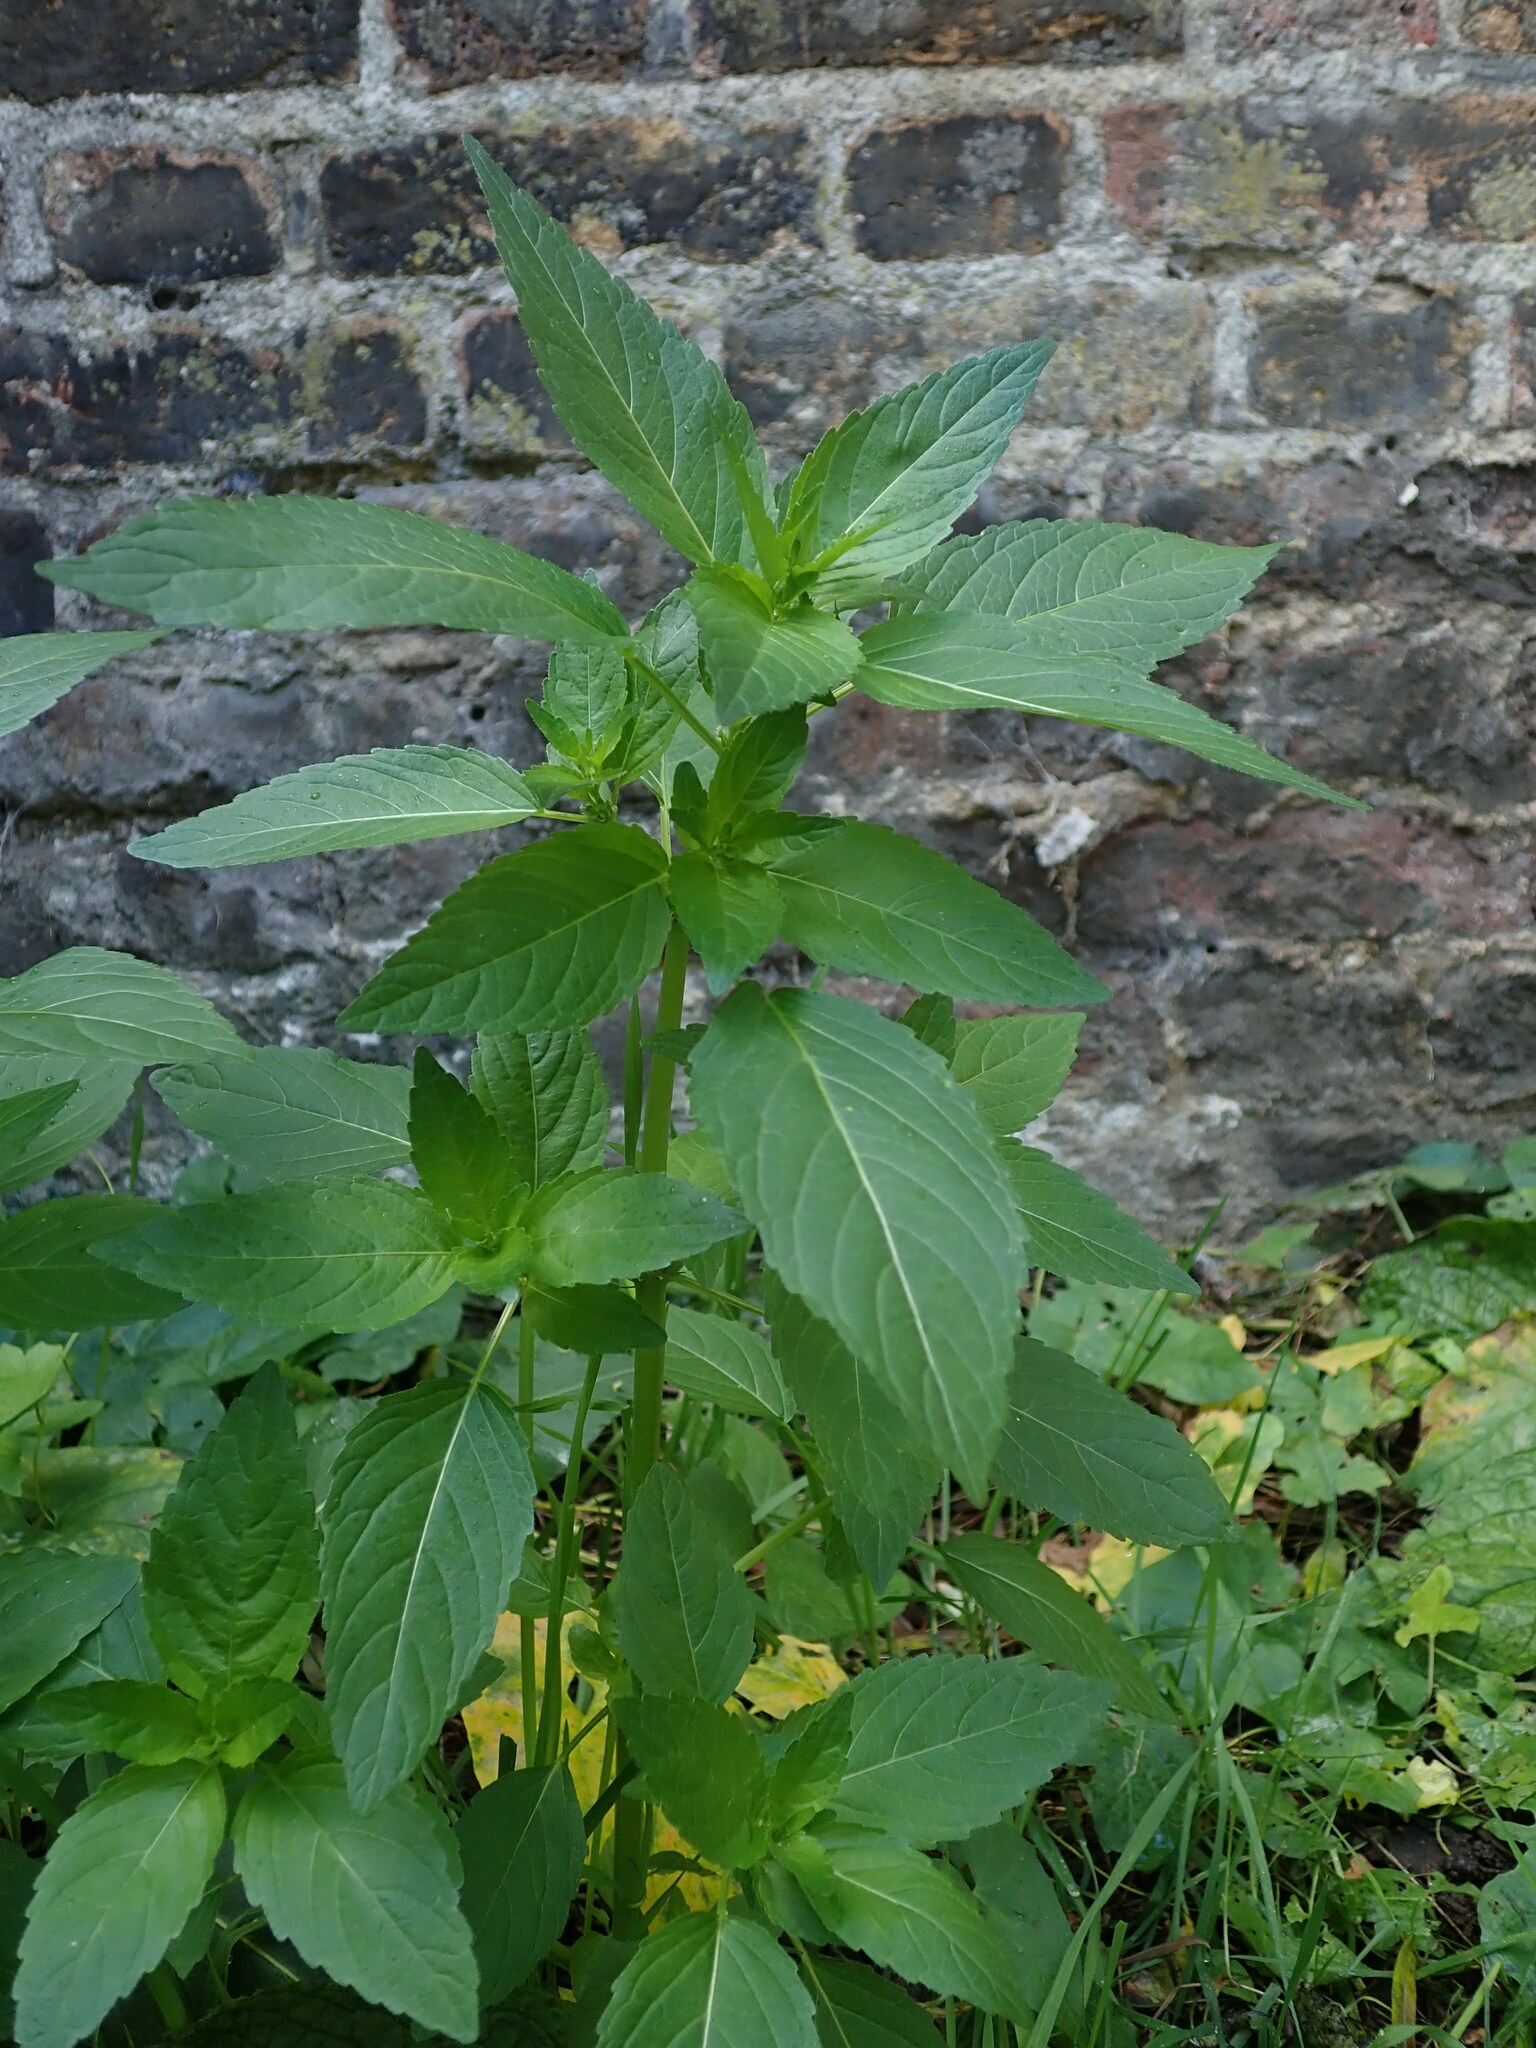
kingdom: Plantae
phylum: Tracheophyta
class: Magnoliopsida
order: Malpighiales
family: Euphorbiaceae
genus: Mercurialis
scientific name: Mercurialis annua
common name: Annual mercury
